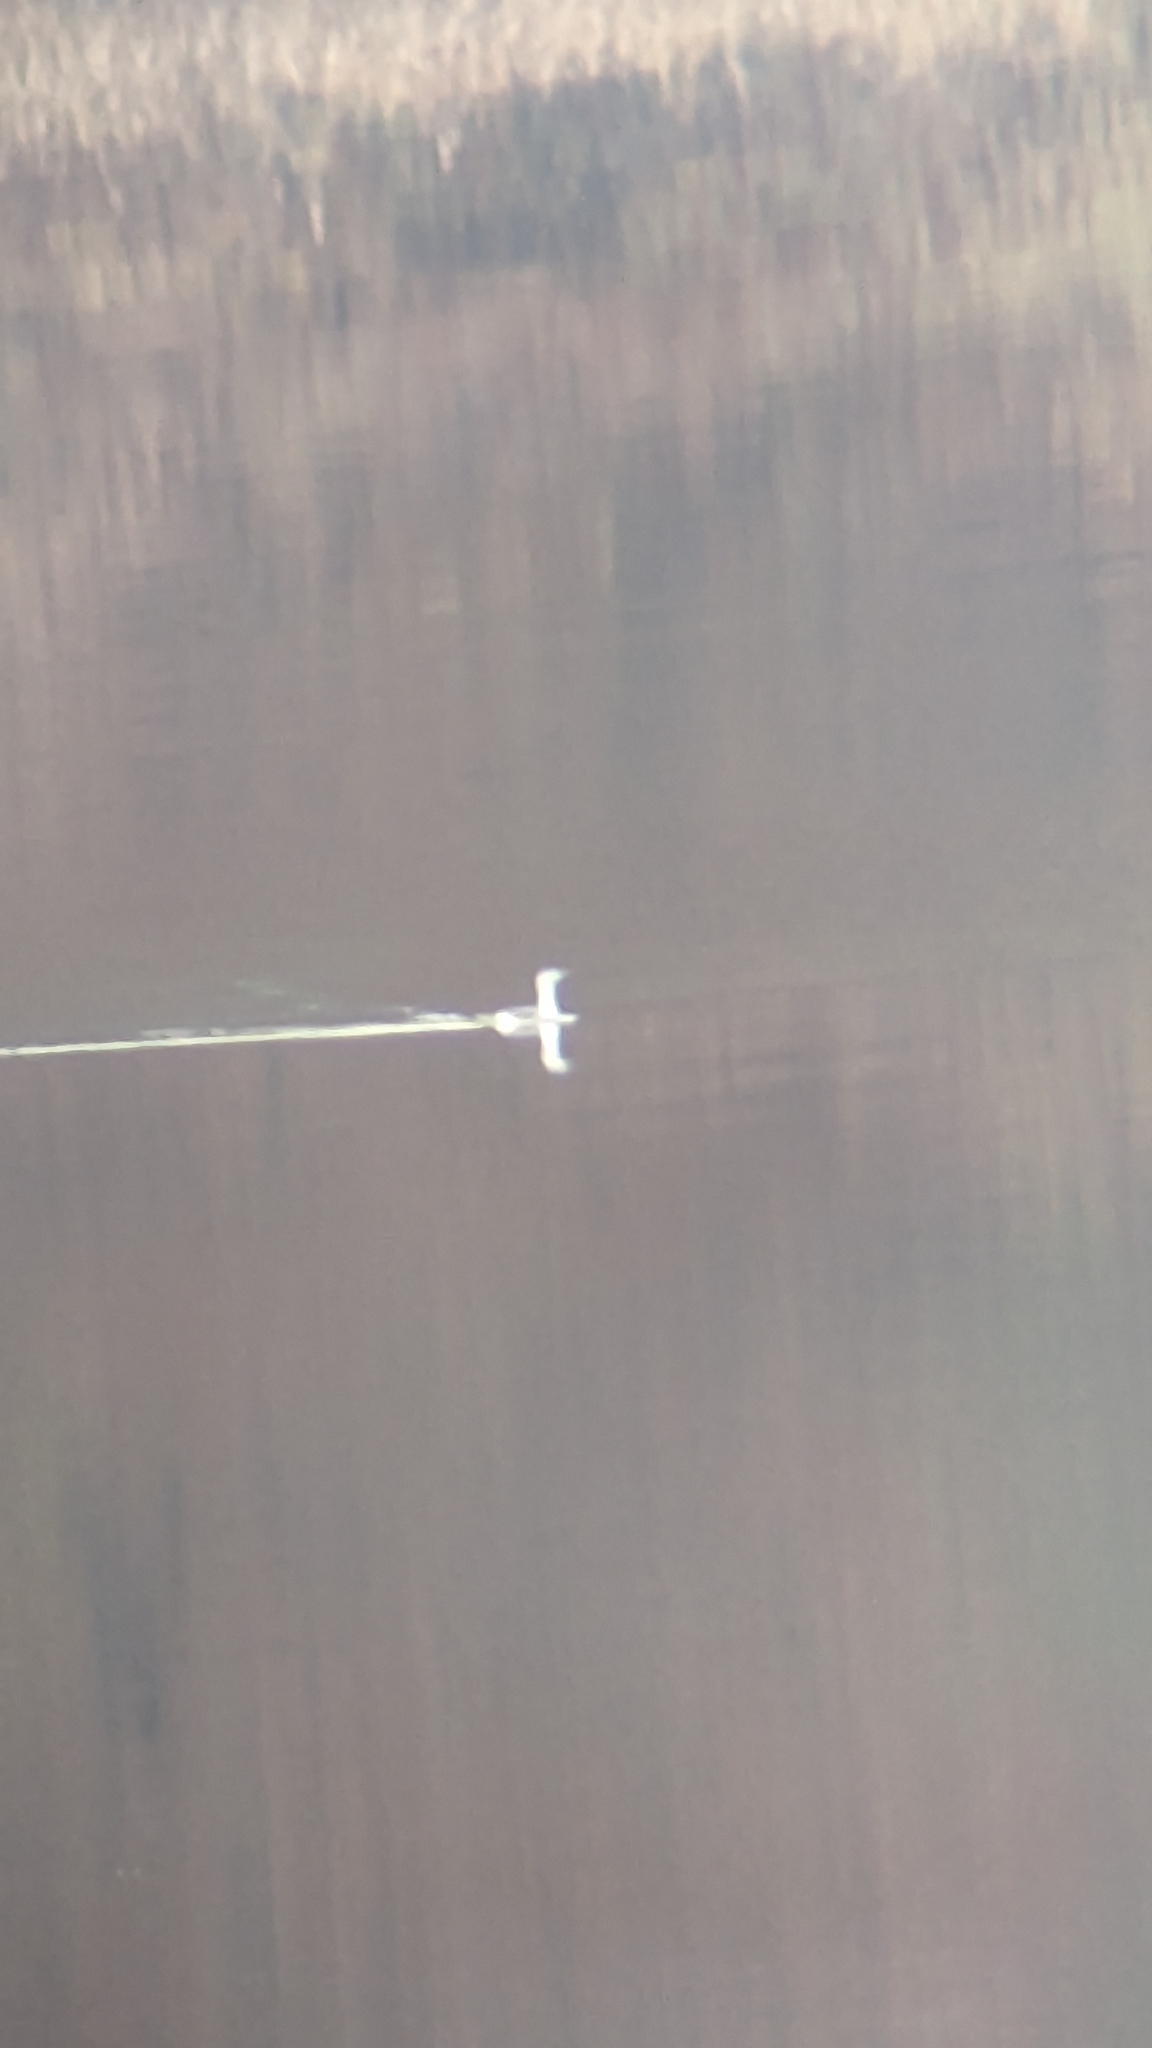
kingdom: Animalia
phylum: Chordata
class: Aves
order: Gaviiformes
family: Gaviidae
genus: Gavia
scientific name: Gavia stellata
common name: Red-throated loon
